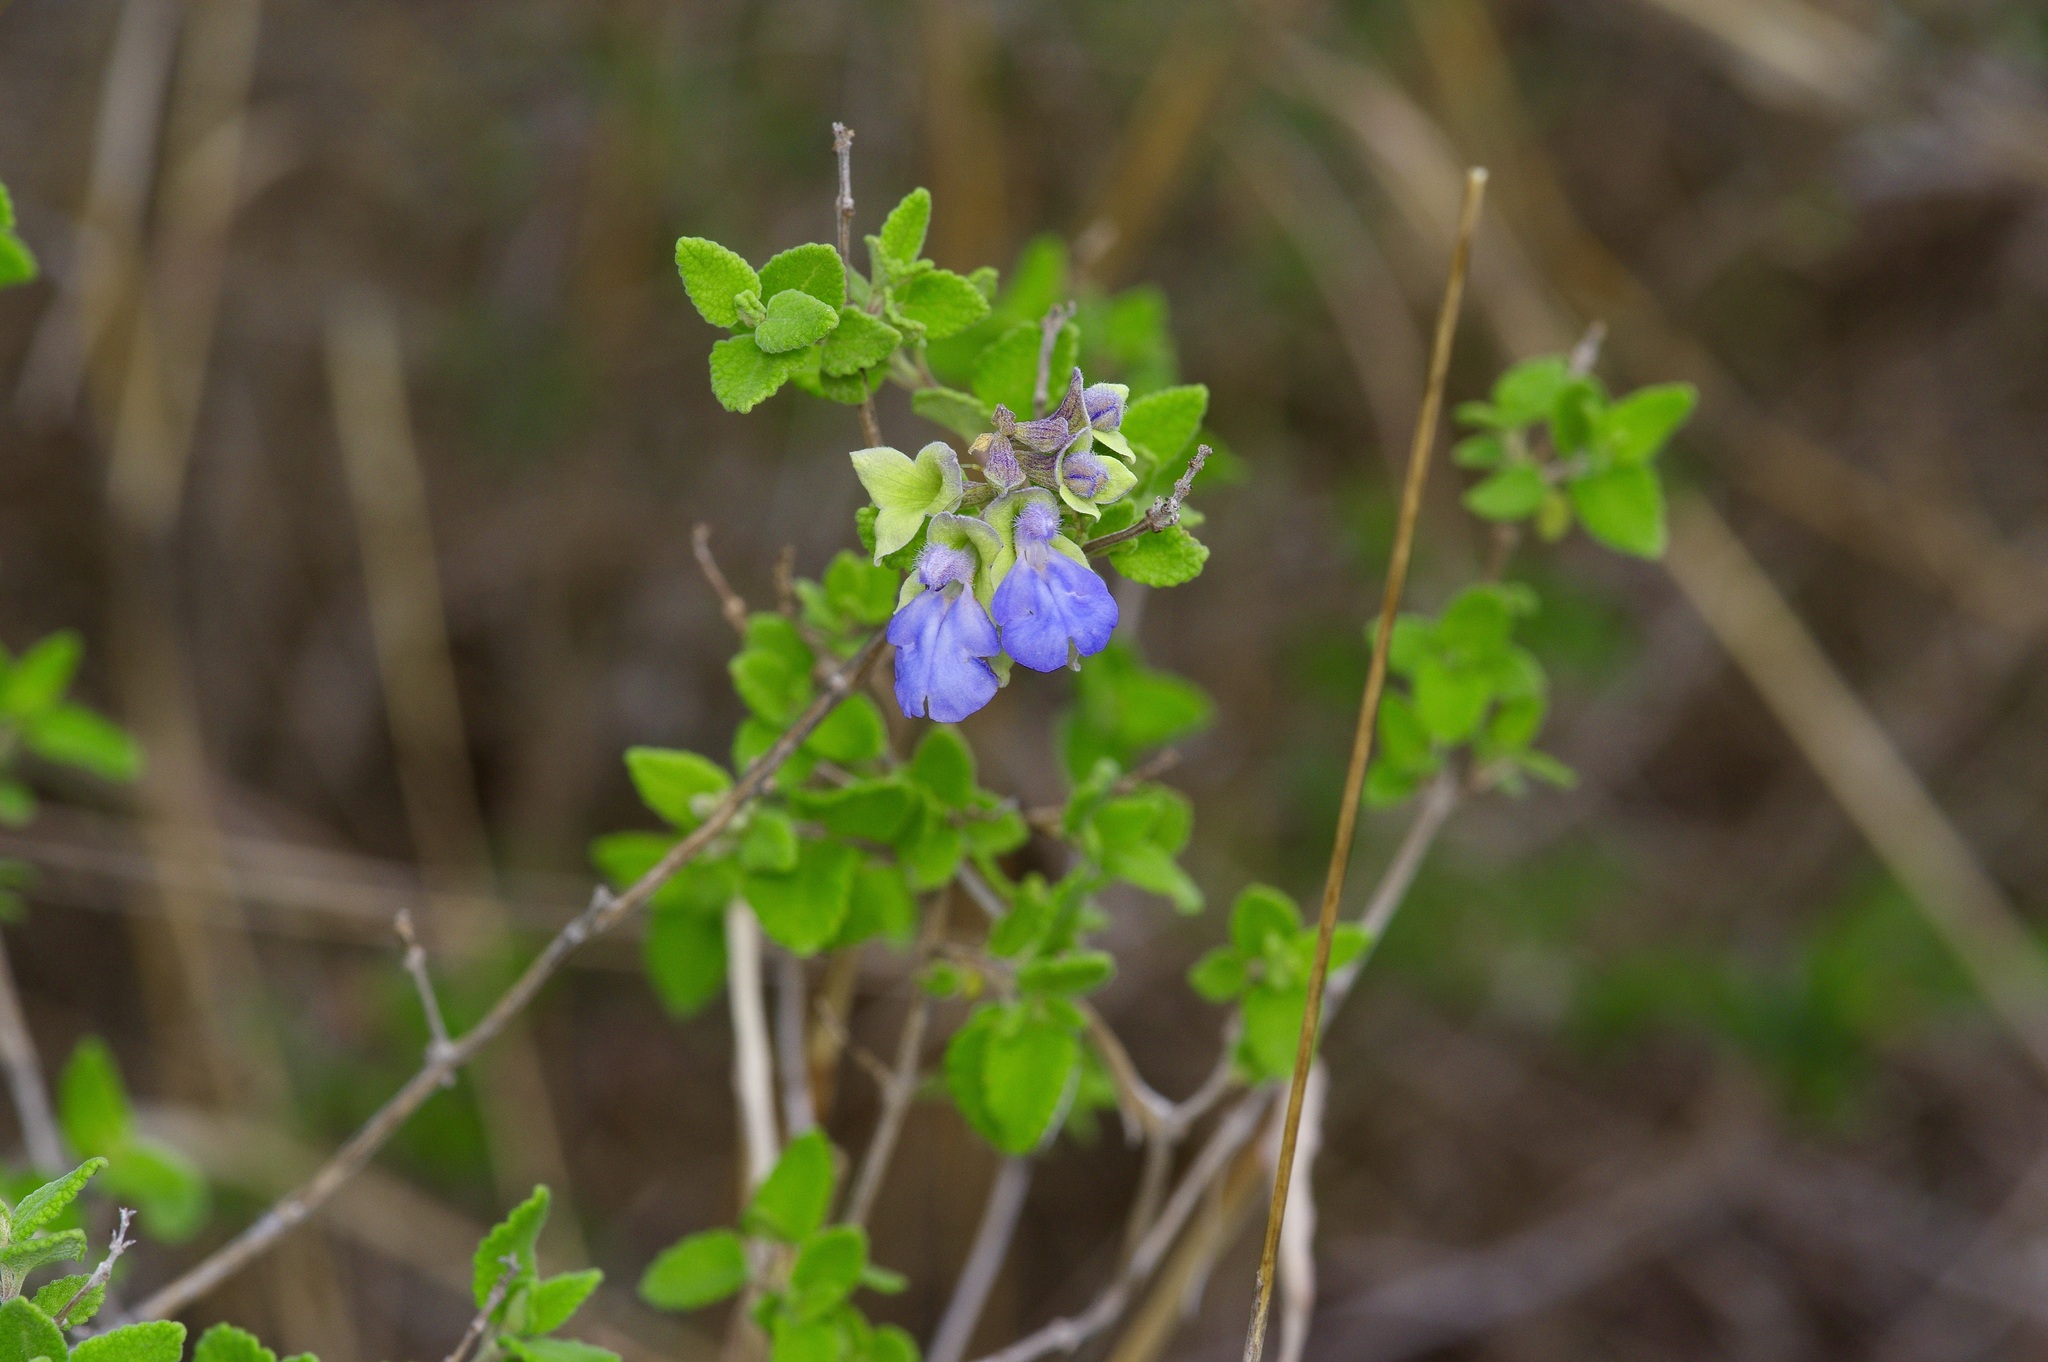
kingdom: Plantae
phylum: Tracheophyta
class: Magnoliopsida
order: Lamiales
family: Lamiaceae
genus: Salvia
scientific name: Salvia ballotiflora
